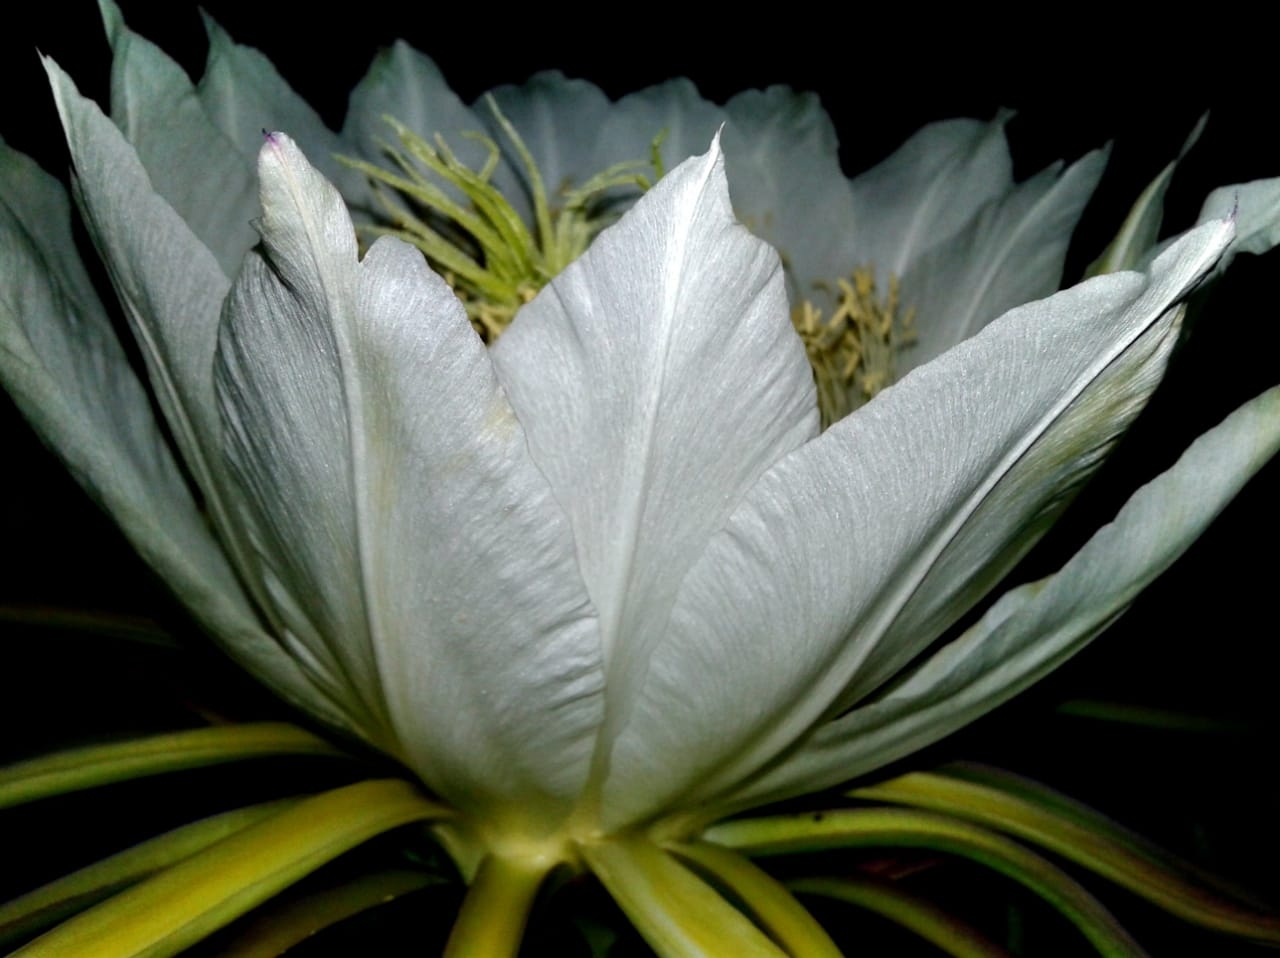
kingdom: Plantae
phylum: Tracheophyta
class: Magnoliopsida
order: Caryophyllales
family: Cactaceae
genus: Selenicereus
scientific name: Selenicereus undatus
